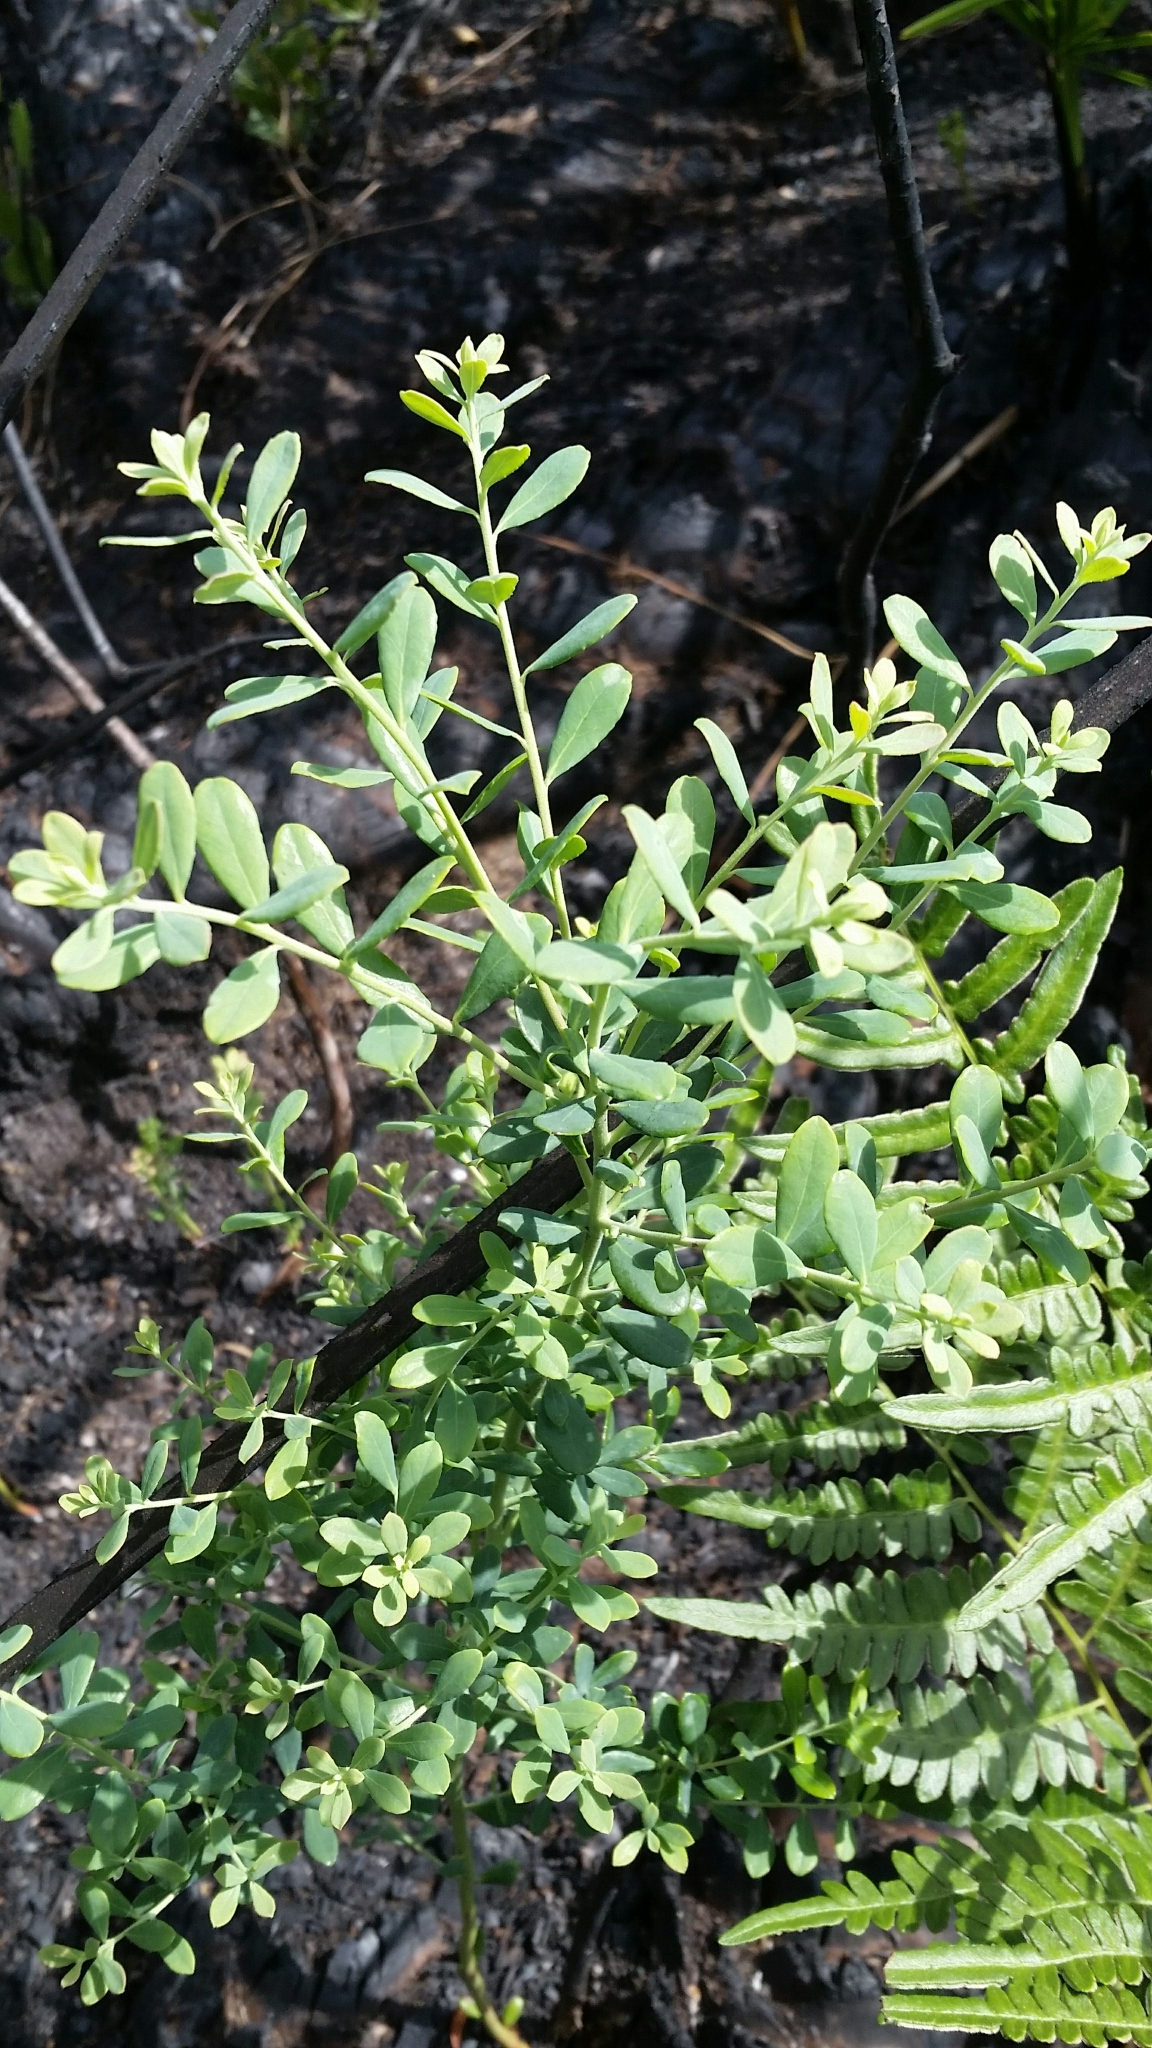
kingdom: Plantae
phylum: Tracheophyta
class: Magnoliopsida
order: Ericales
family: Ericaceae
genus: Vaccinium
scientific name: Vaccinium darrowii
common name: Darrow's blueberry
